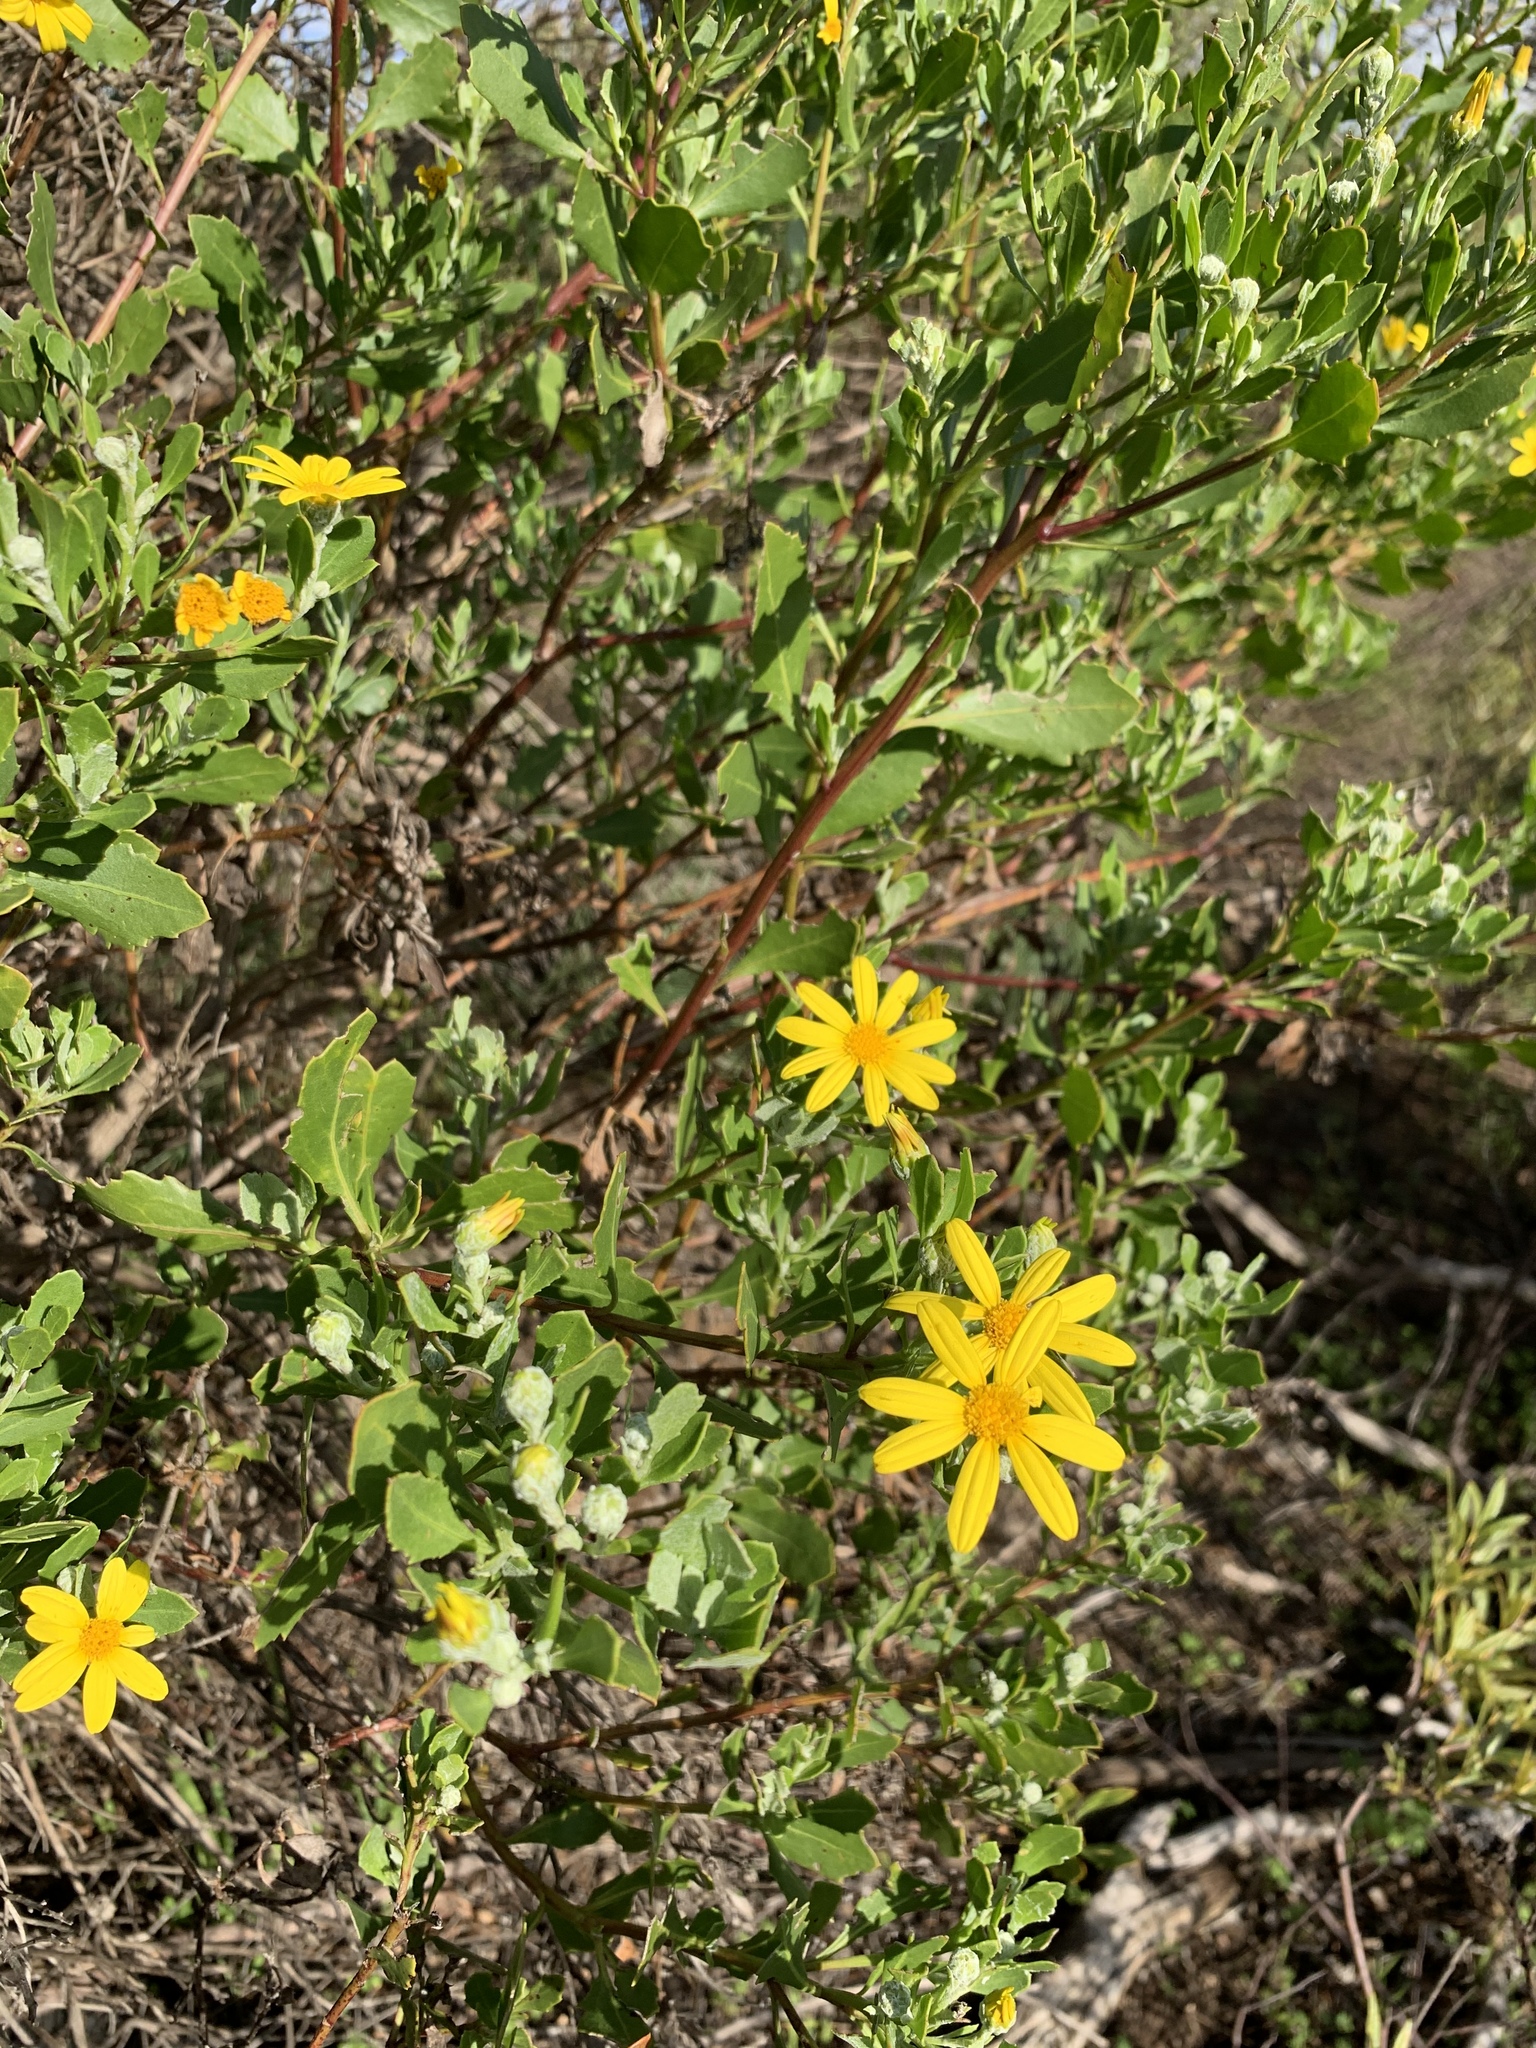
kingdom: Plantae
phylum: Tracheophyta
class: Magnoliopsida
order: Asterales
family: Asteraceae
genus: Osteospermum
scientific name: Osteospermum moniliferum
